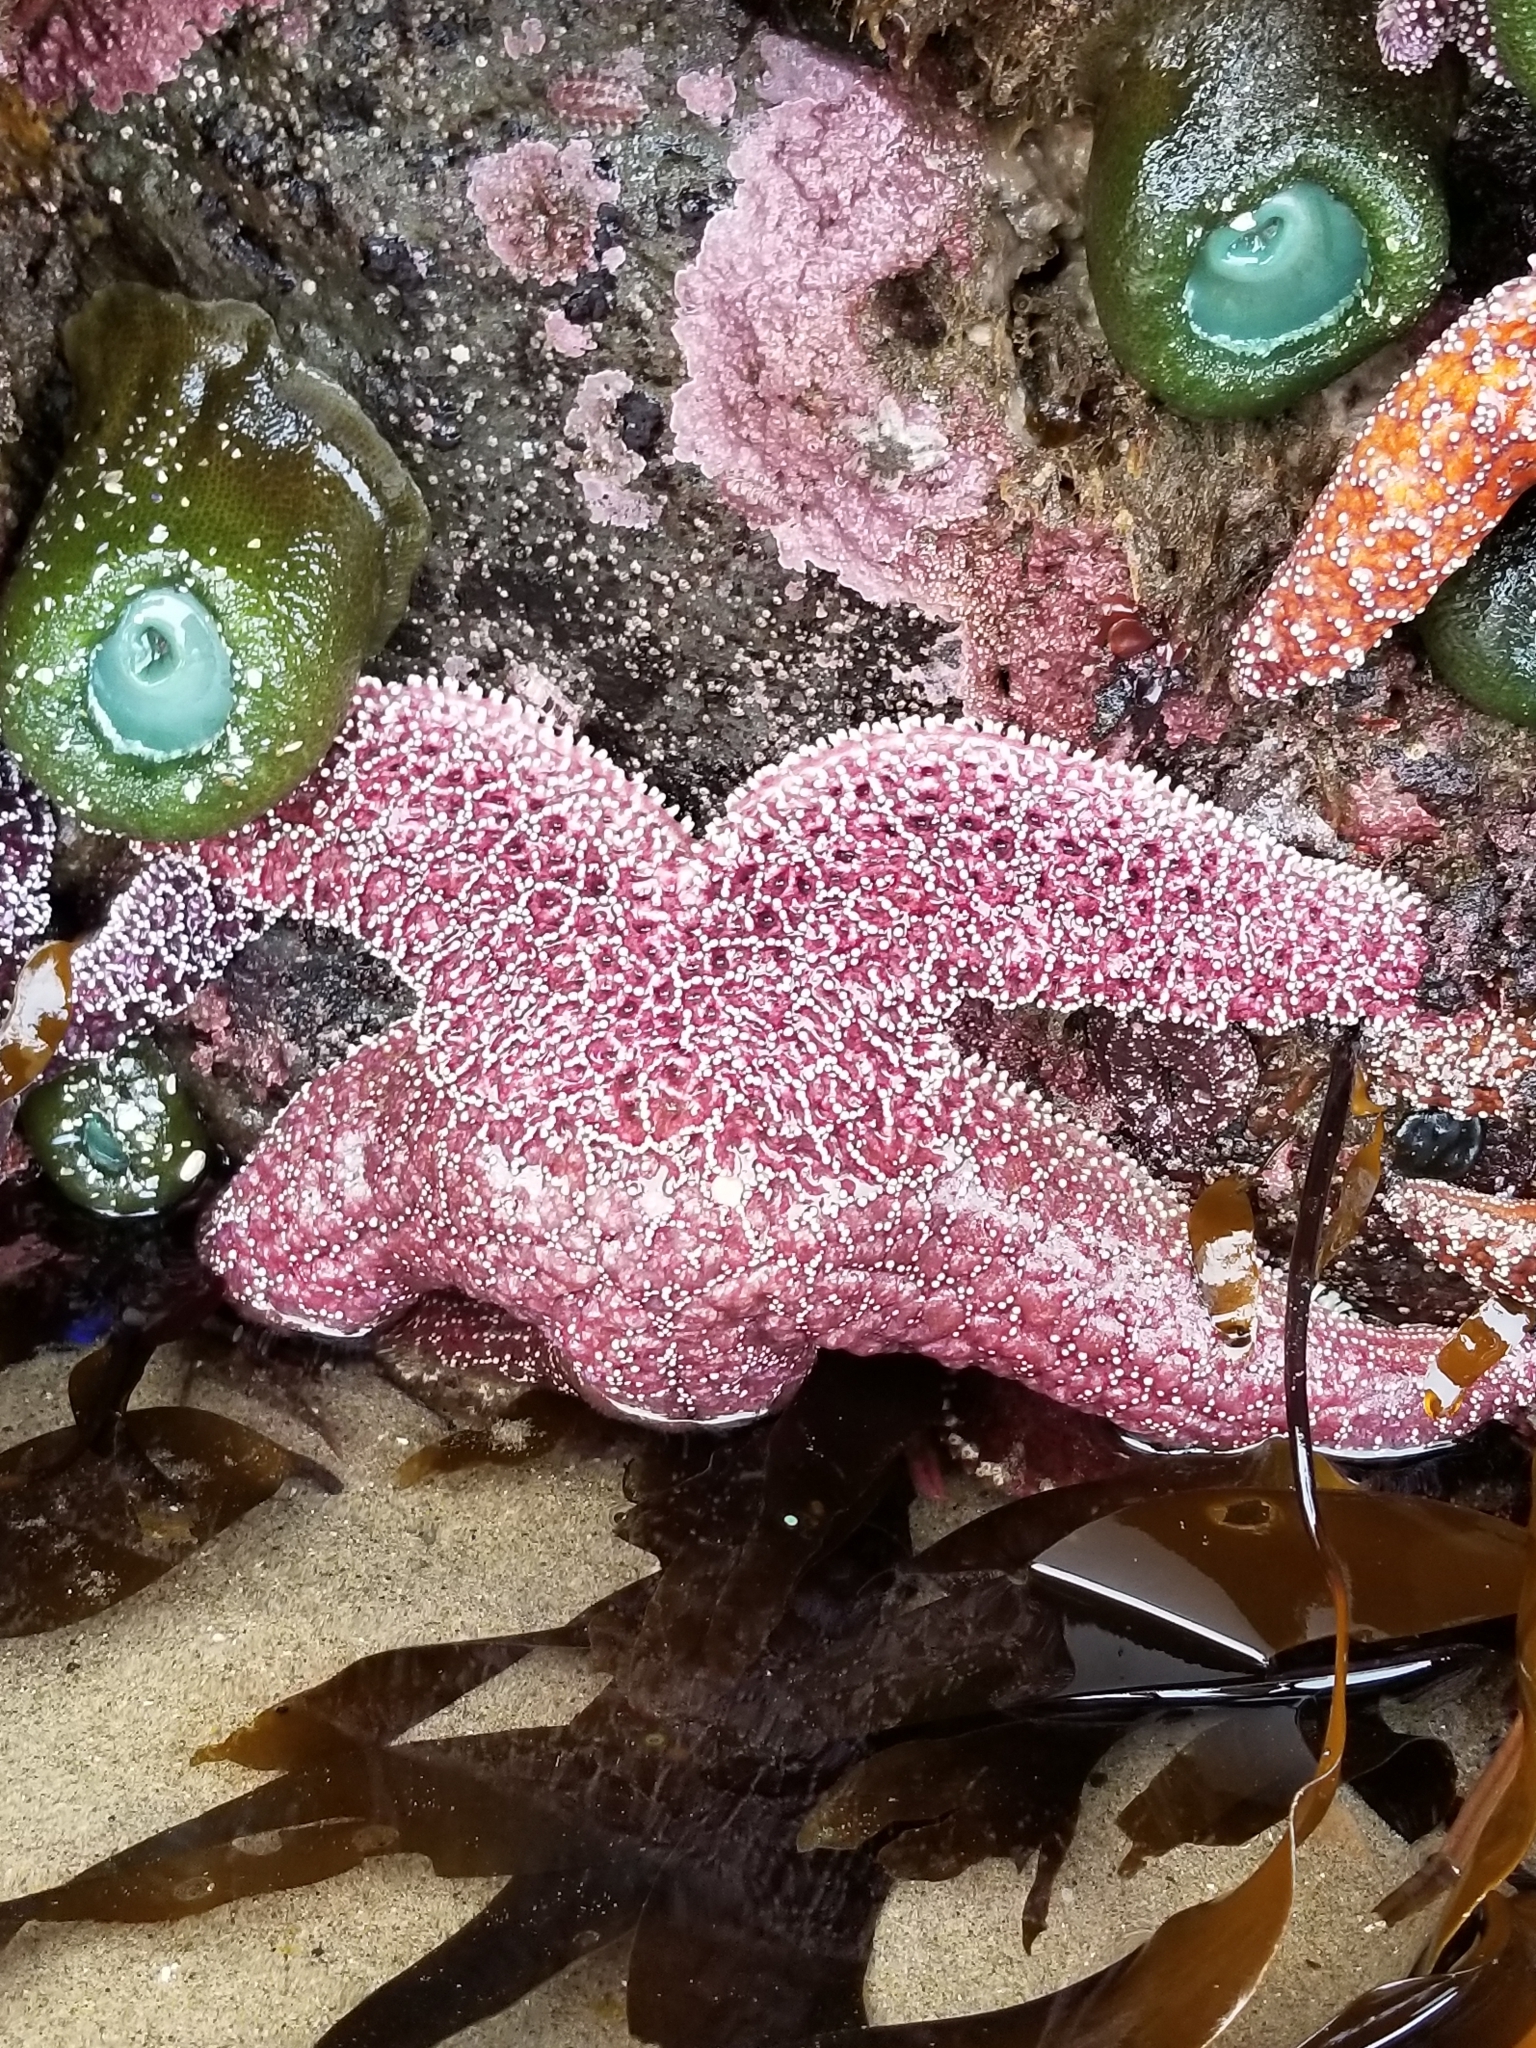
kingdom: Animalia
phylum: Echinodermata
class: Asteroidea
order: Forcipulatida
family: Asteriidae
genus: Pisaster
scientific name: Pisaster ochraceus
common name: Ochre stars
